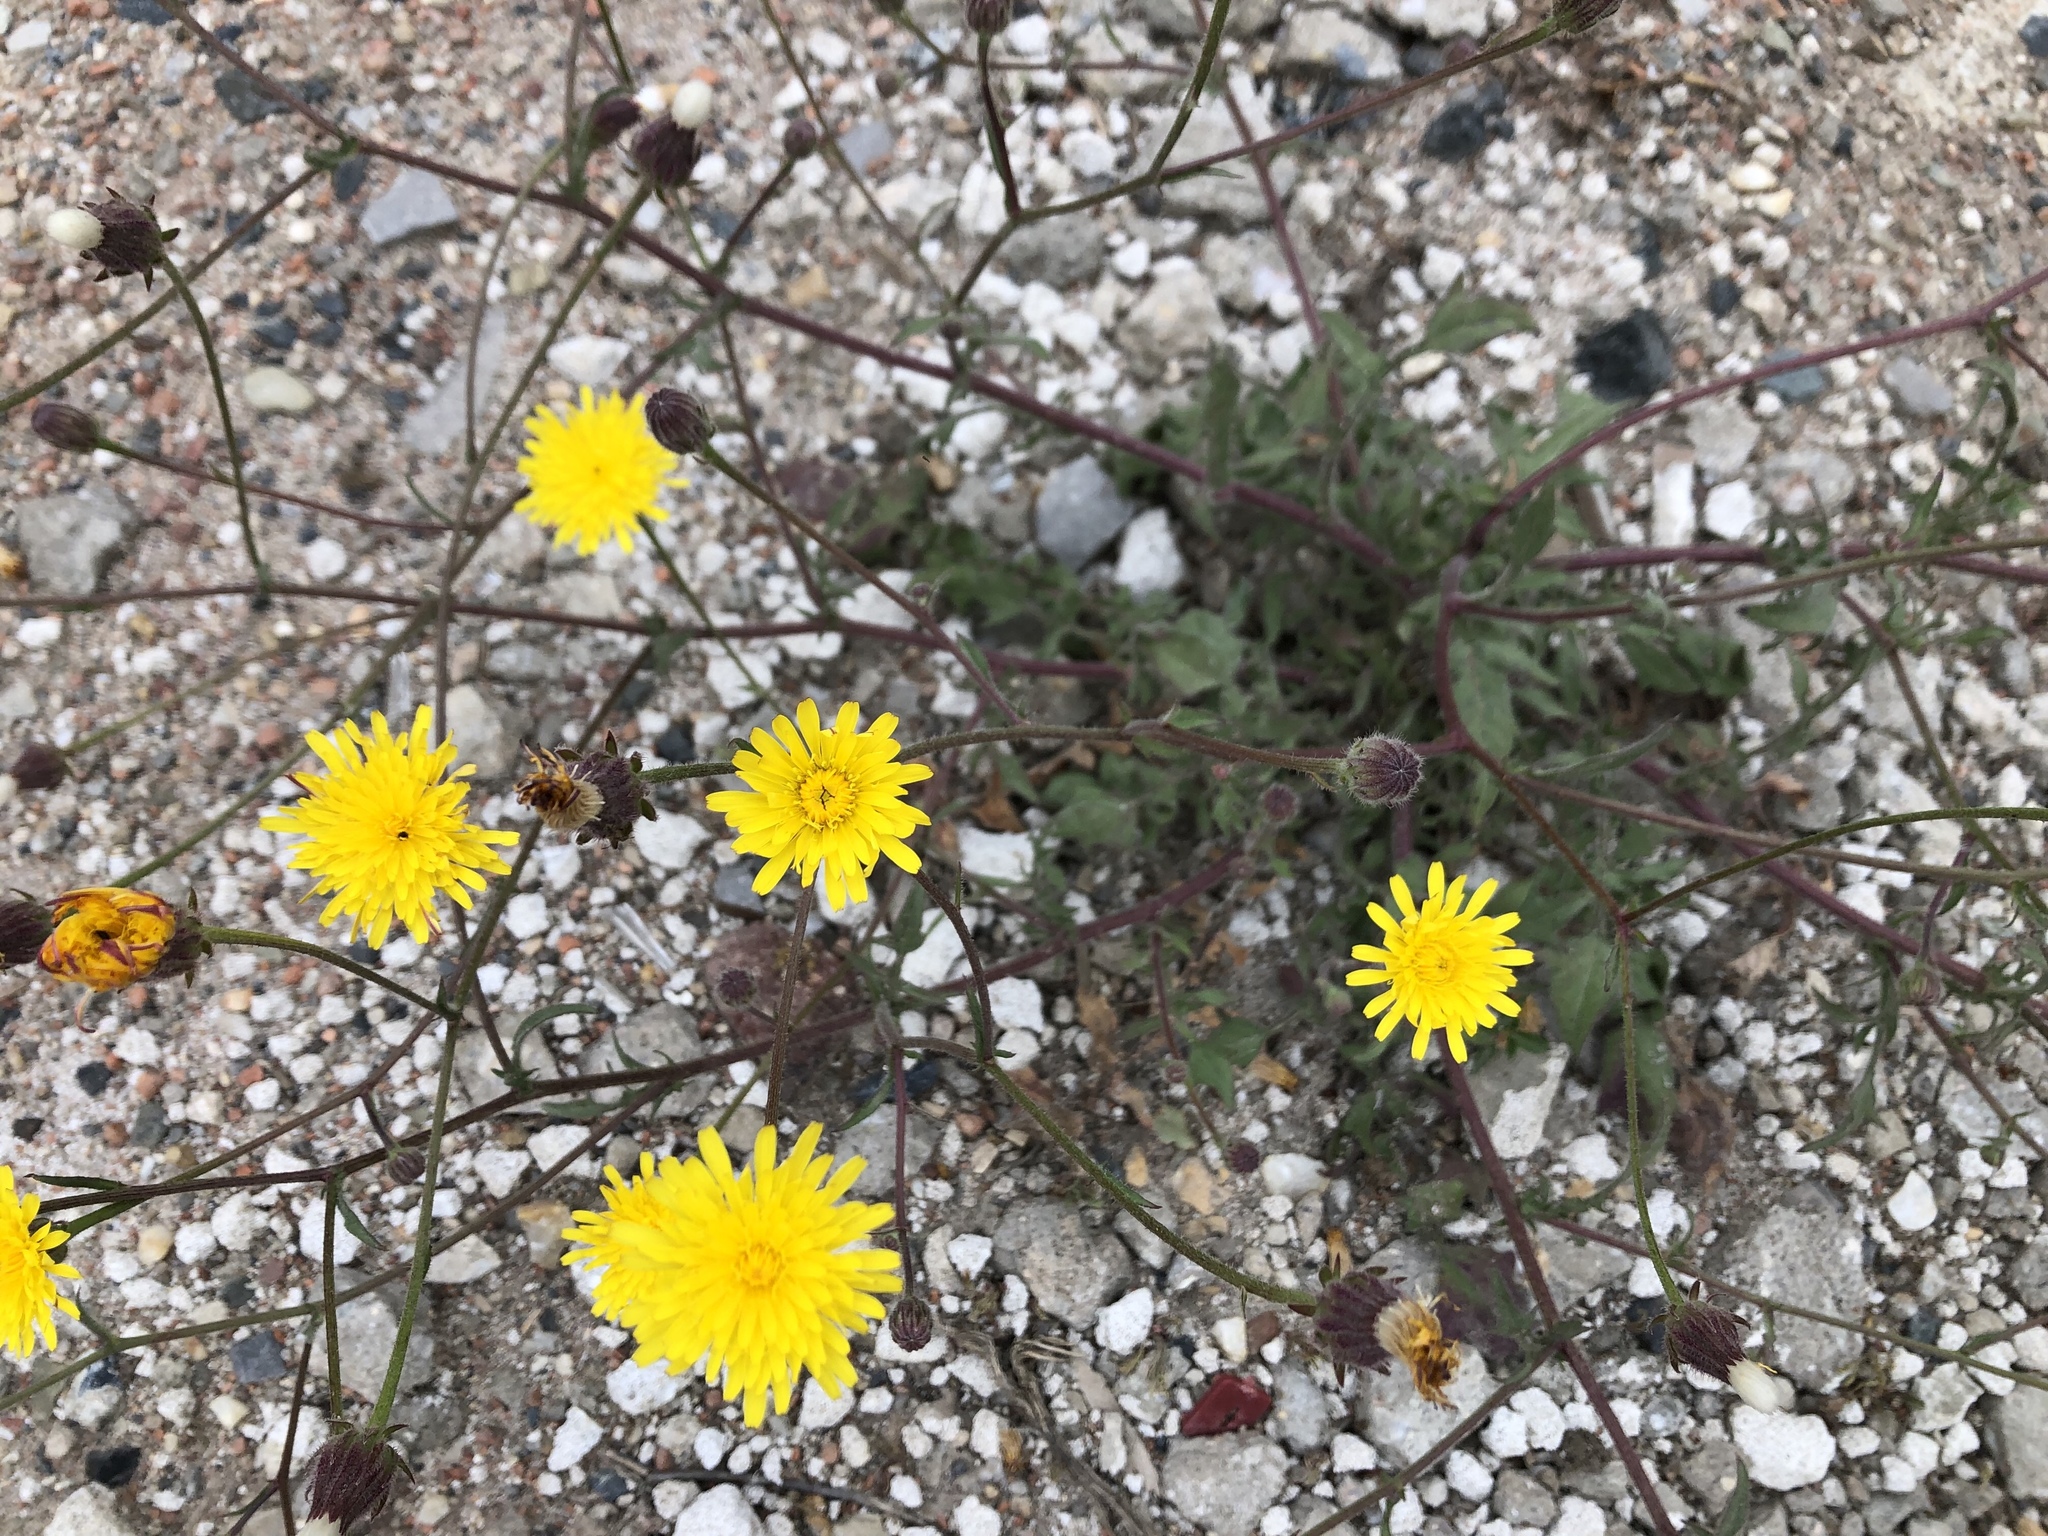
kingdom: Plantae
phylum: Tracheophyta
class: Magnoliopsida
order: Asterales
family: Asteraceae
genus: Crepis
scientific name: Crepis foetida
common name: Stinking hawk's-beard
